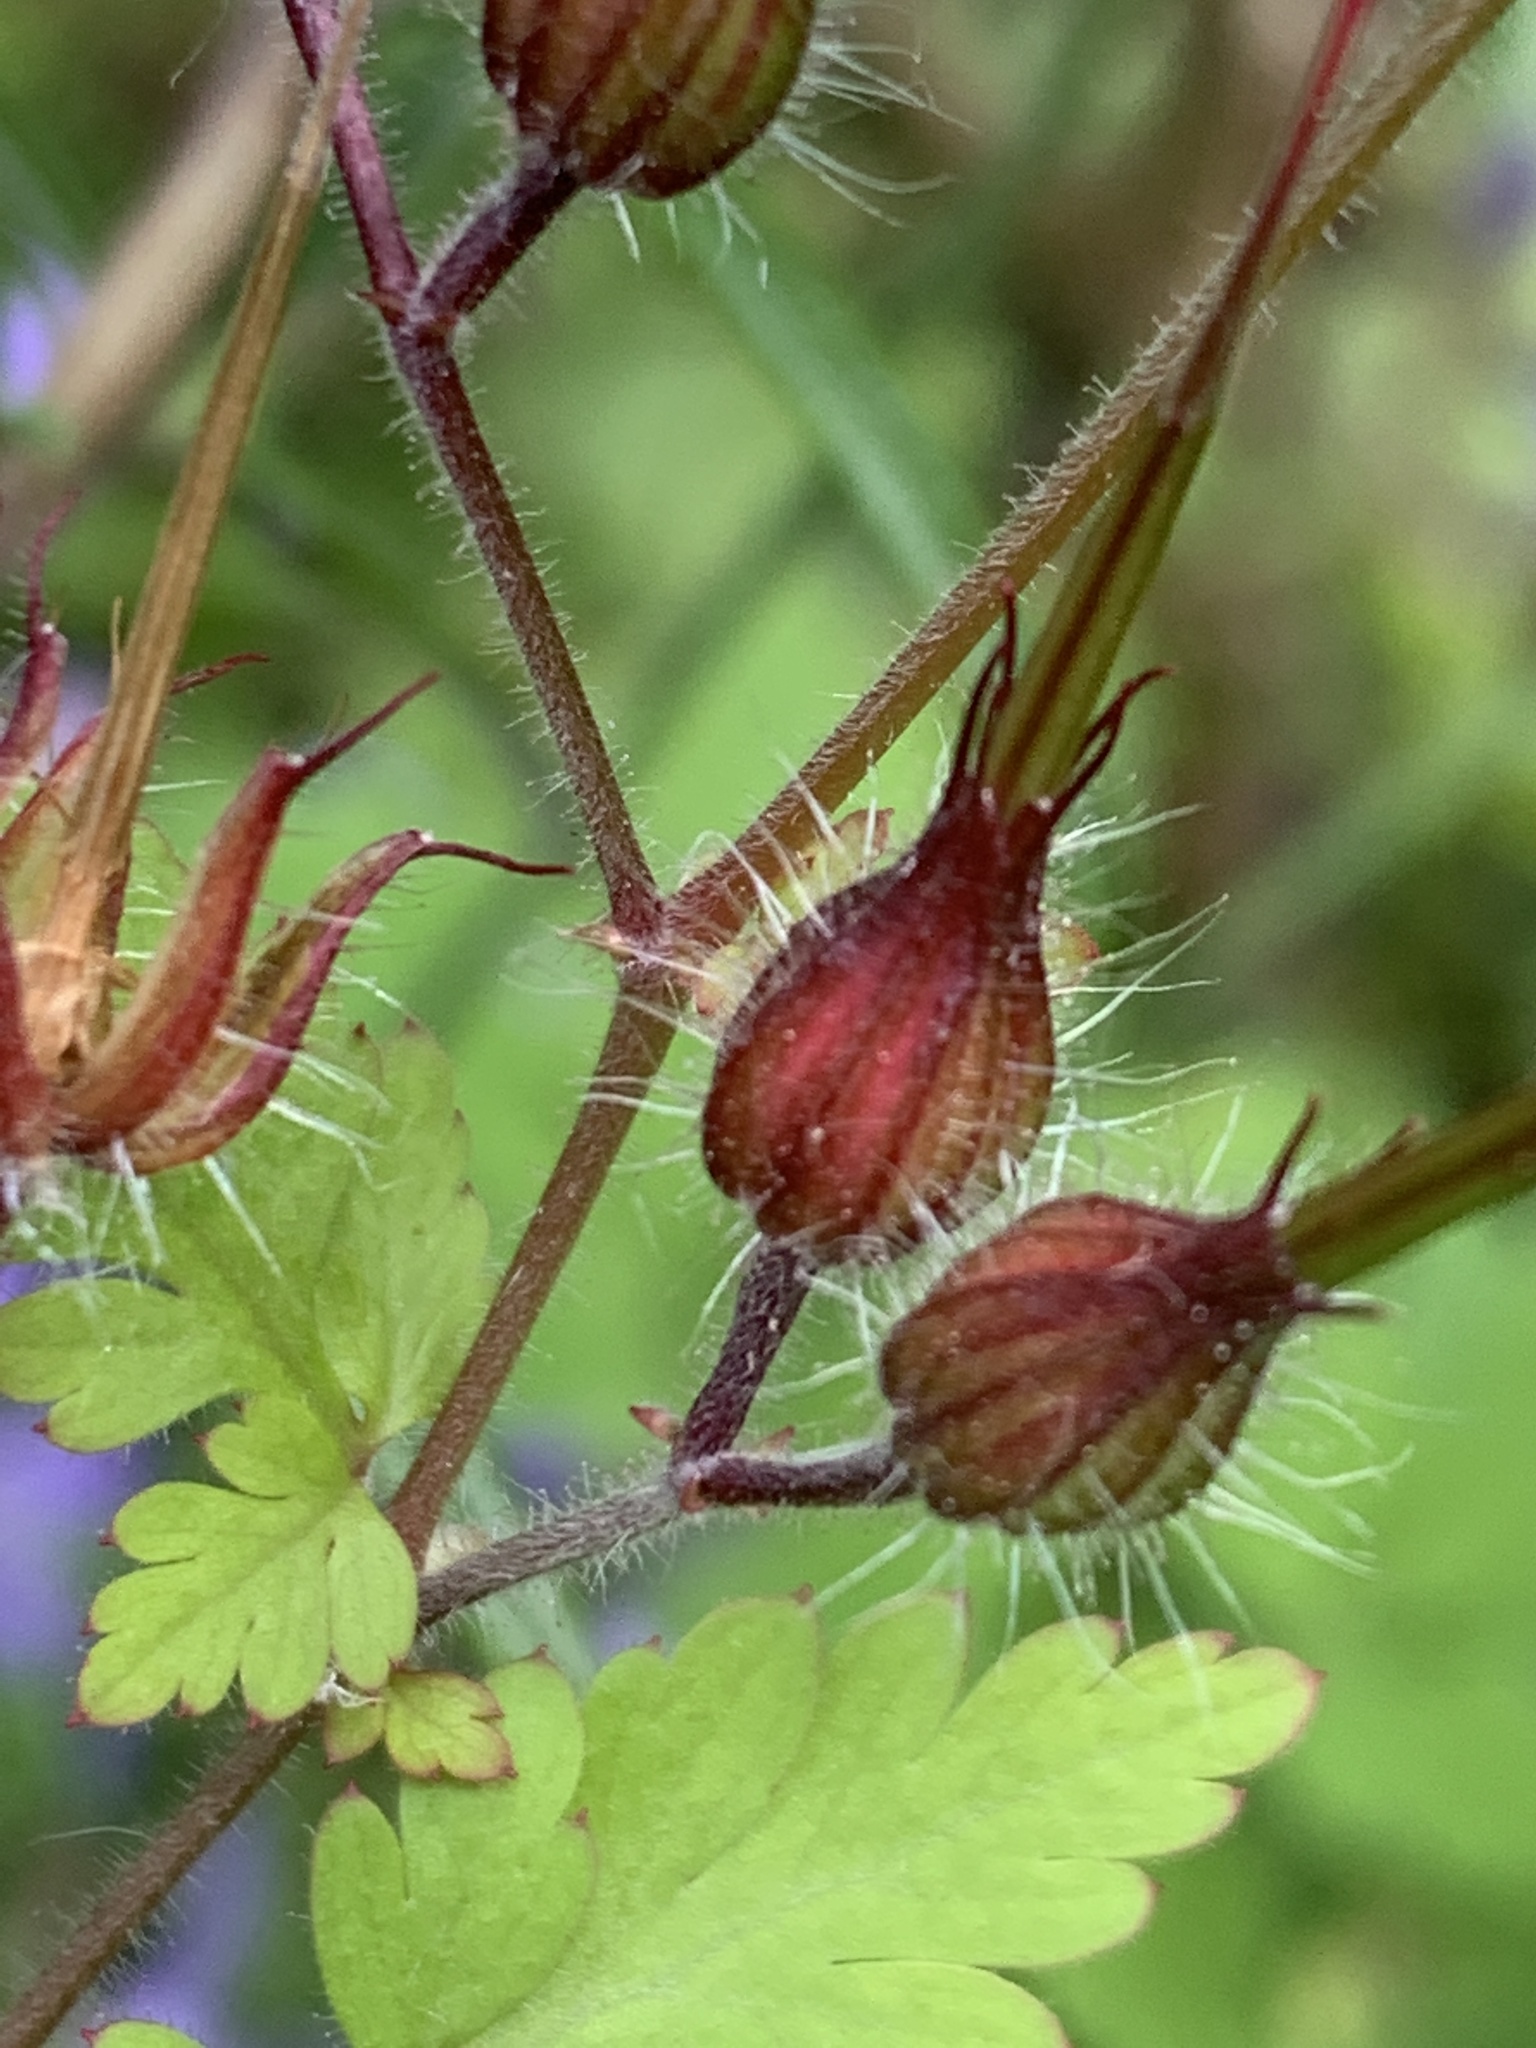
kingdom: Plantae
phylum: Tracheophyta
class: Magnoliopsida
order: Geraniales
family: Geraniaceae
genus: Geranium
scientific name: Geranium robertianum
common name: Herb-robert
